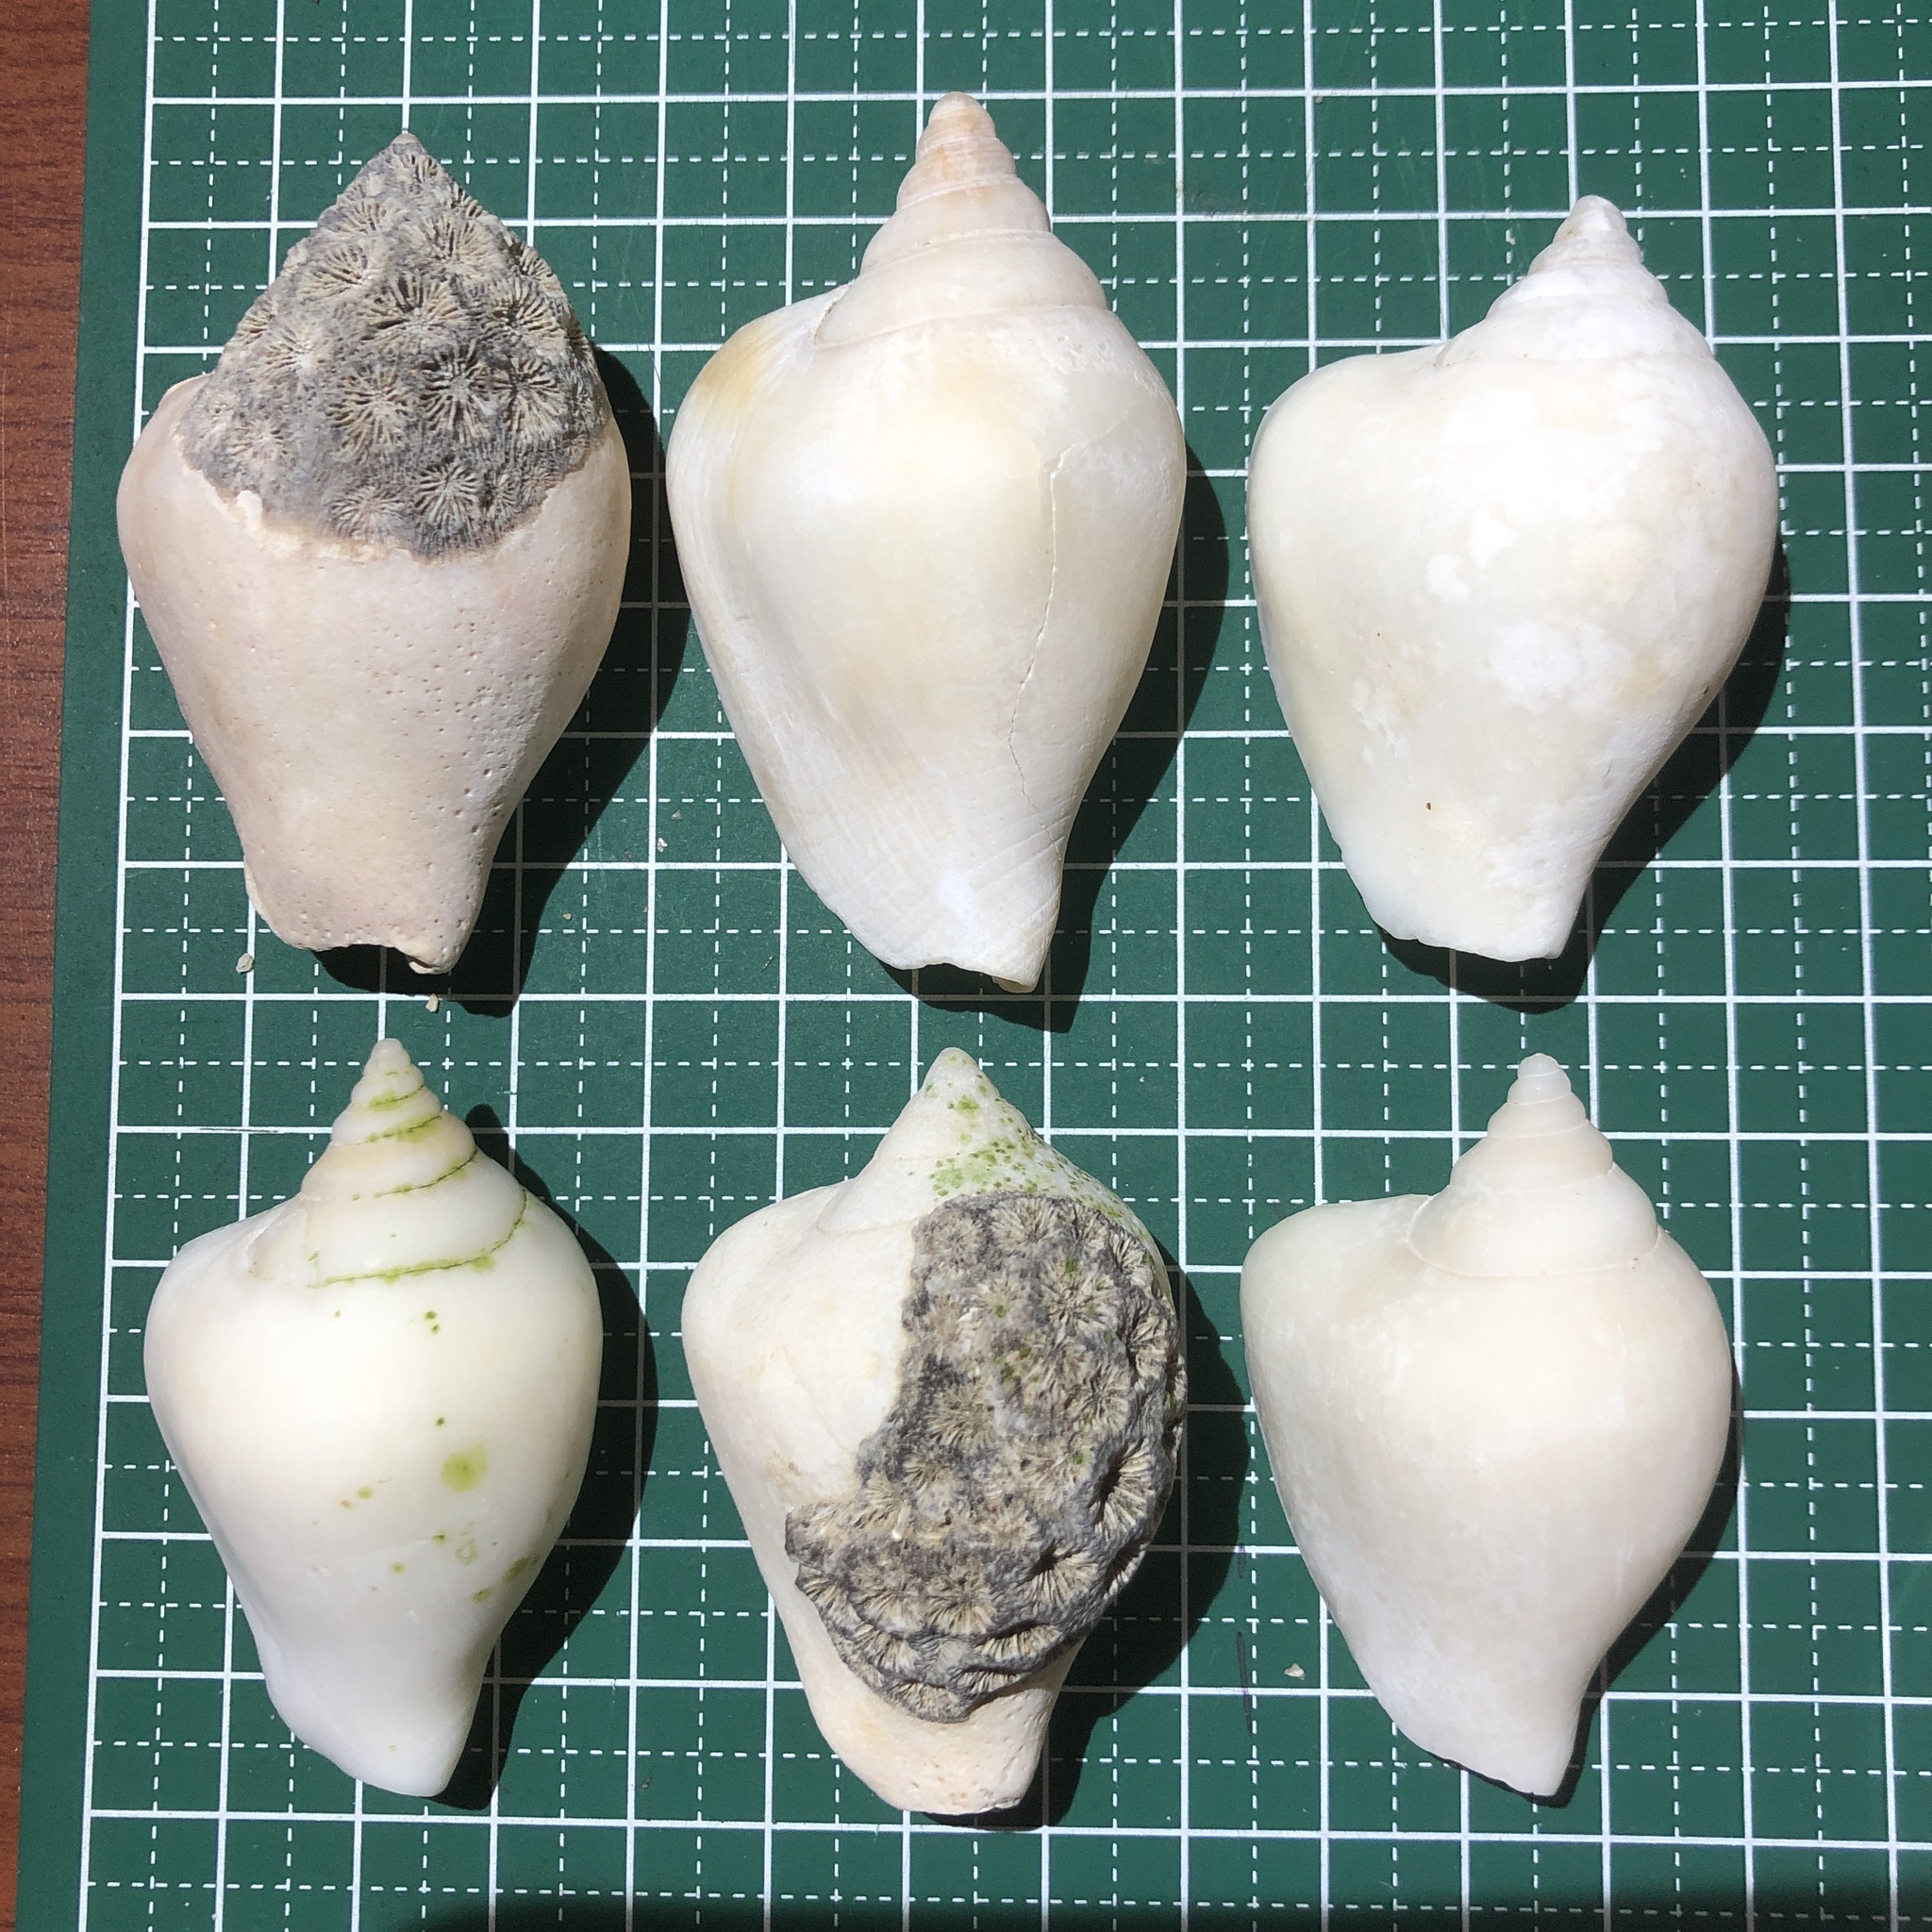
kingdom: Animalia
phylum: Mollusca
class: Gastropoda
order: Littorinimorpha
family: Strombidae
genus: Laevistrombus
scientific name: Laevistrombus turturella
